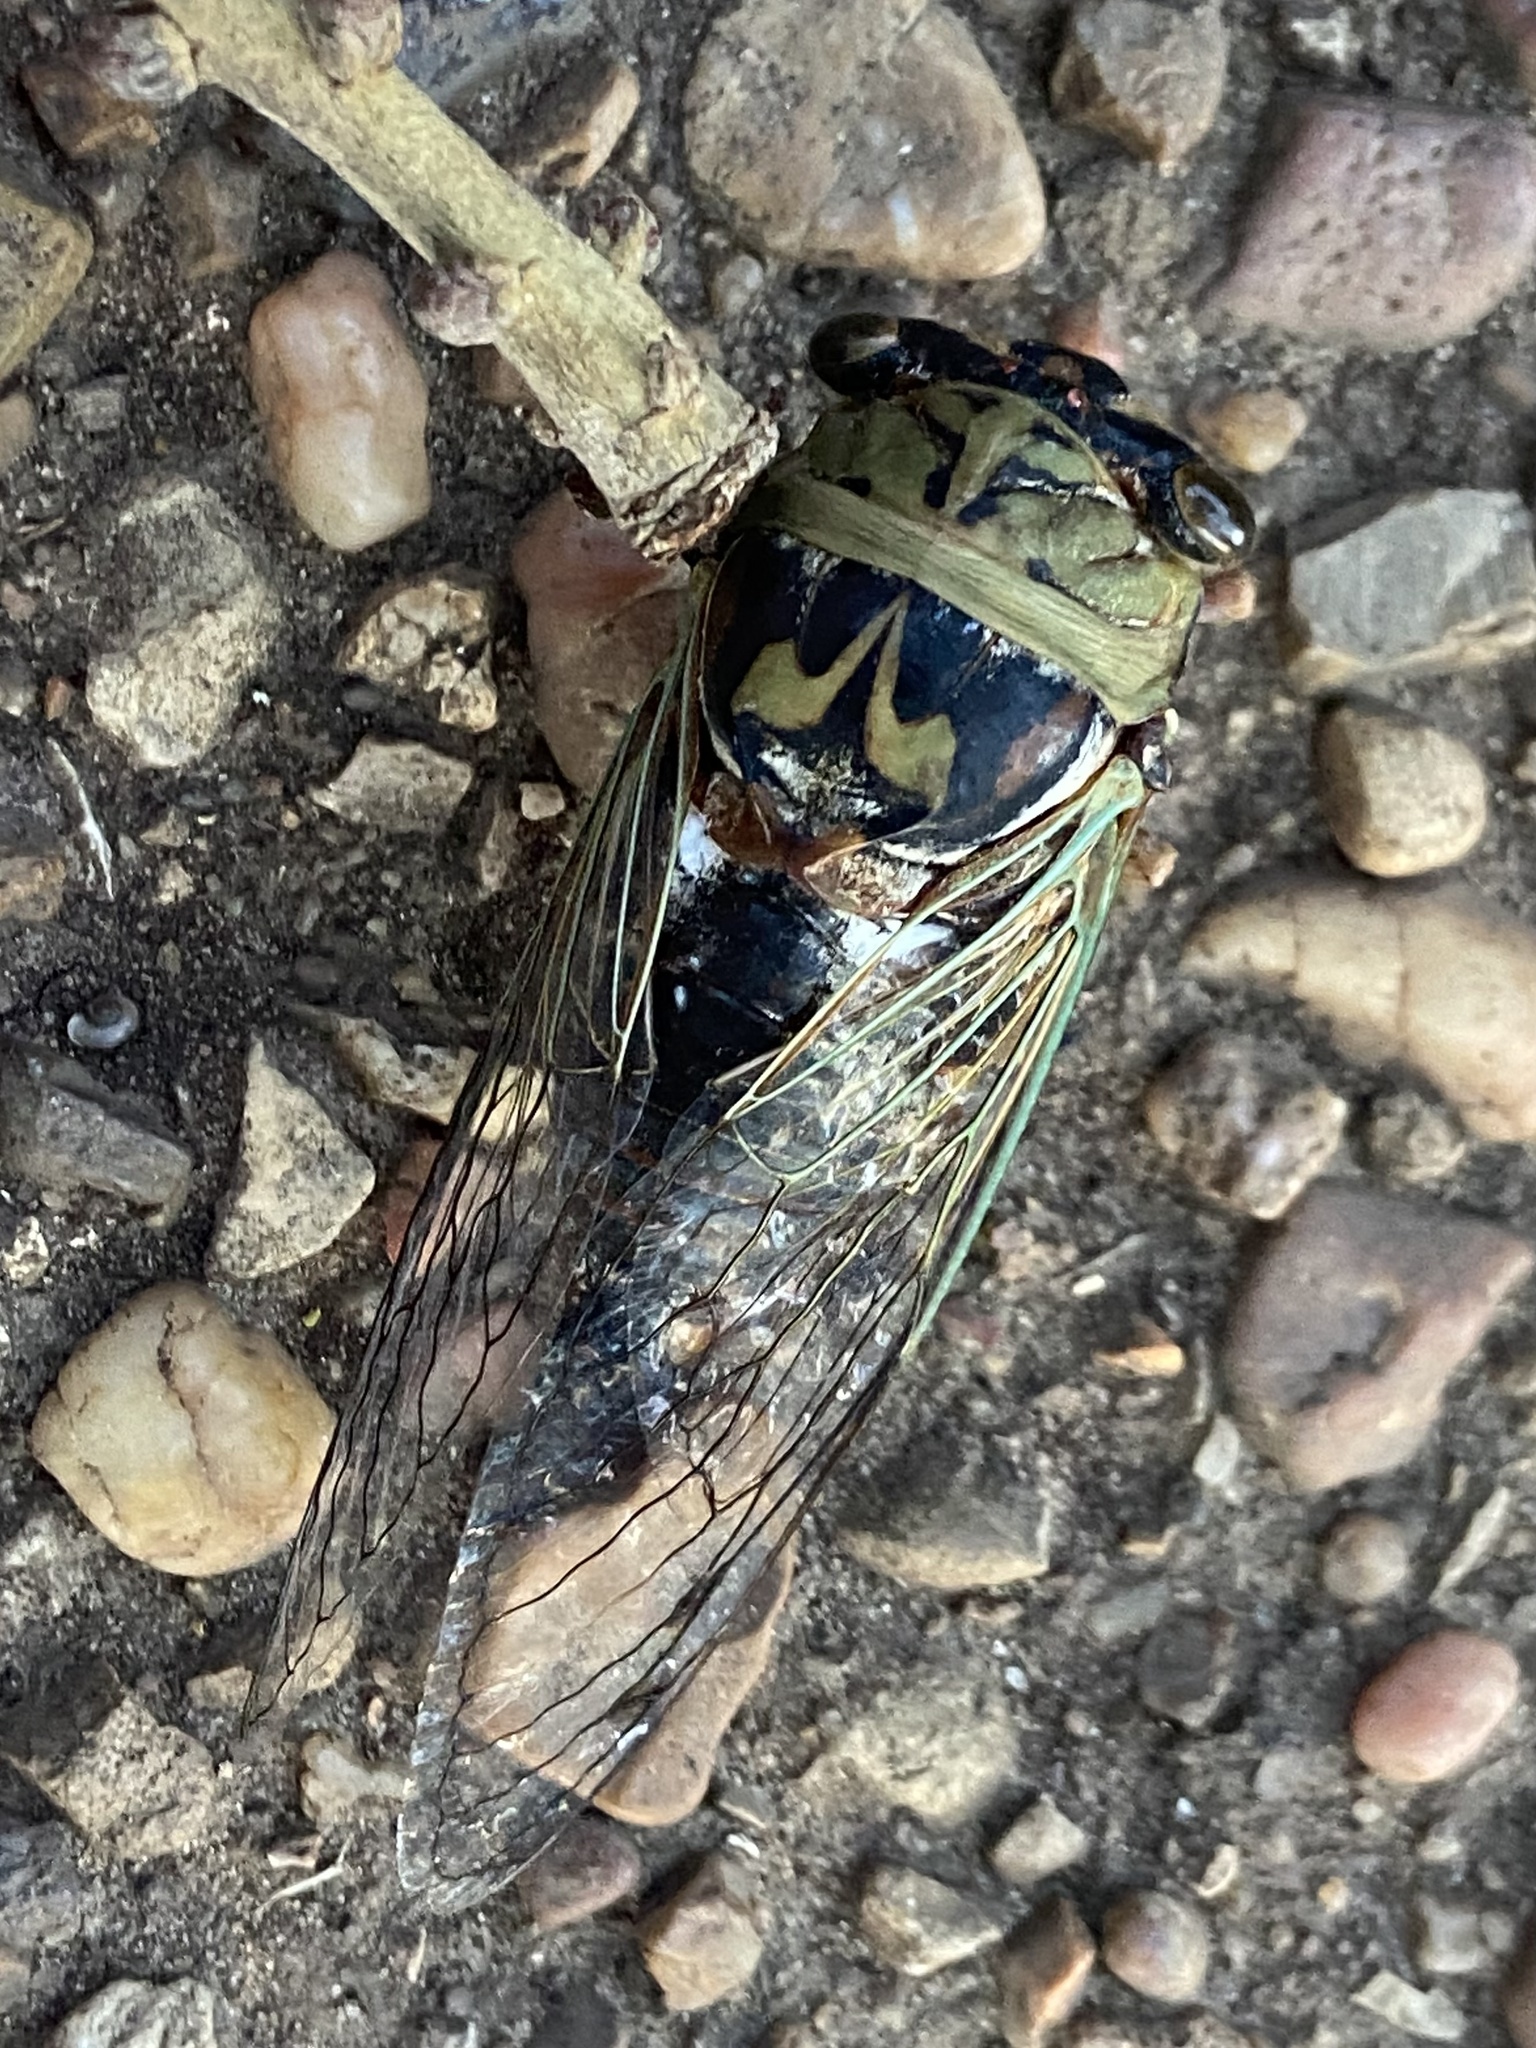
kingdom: Animalia
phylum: Arthropoda
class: Insecta
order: Hemiptera
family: Cicadidae
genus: Megatibicen
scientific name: Megatibicen resh
